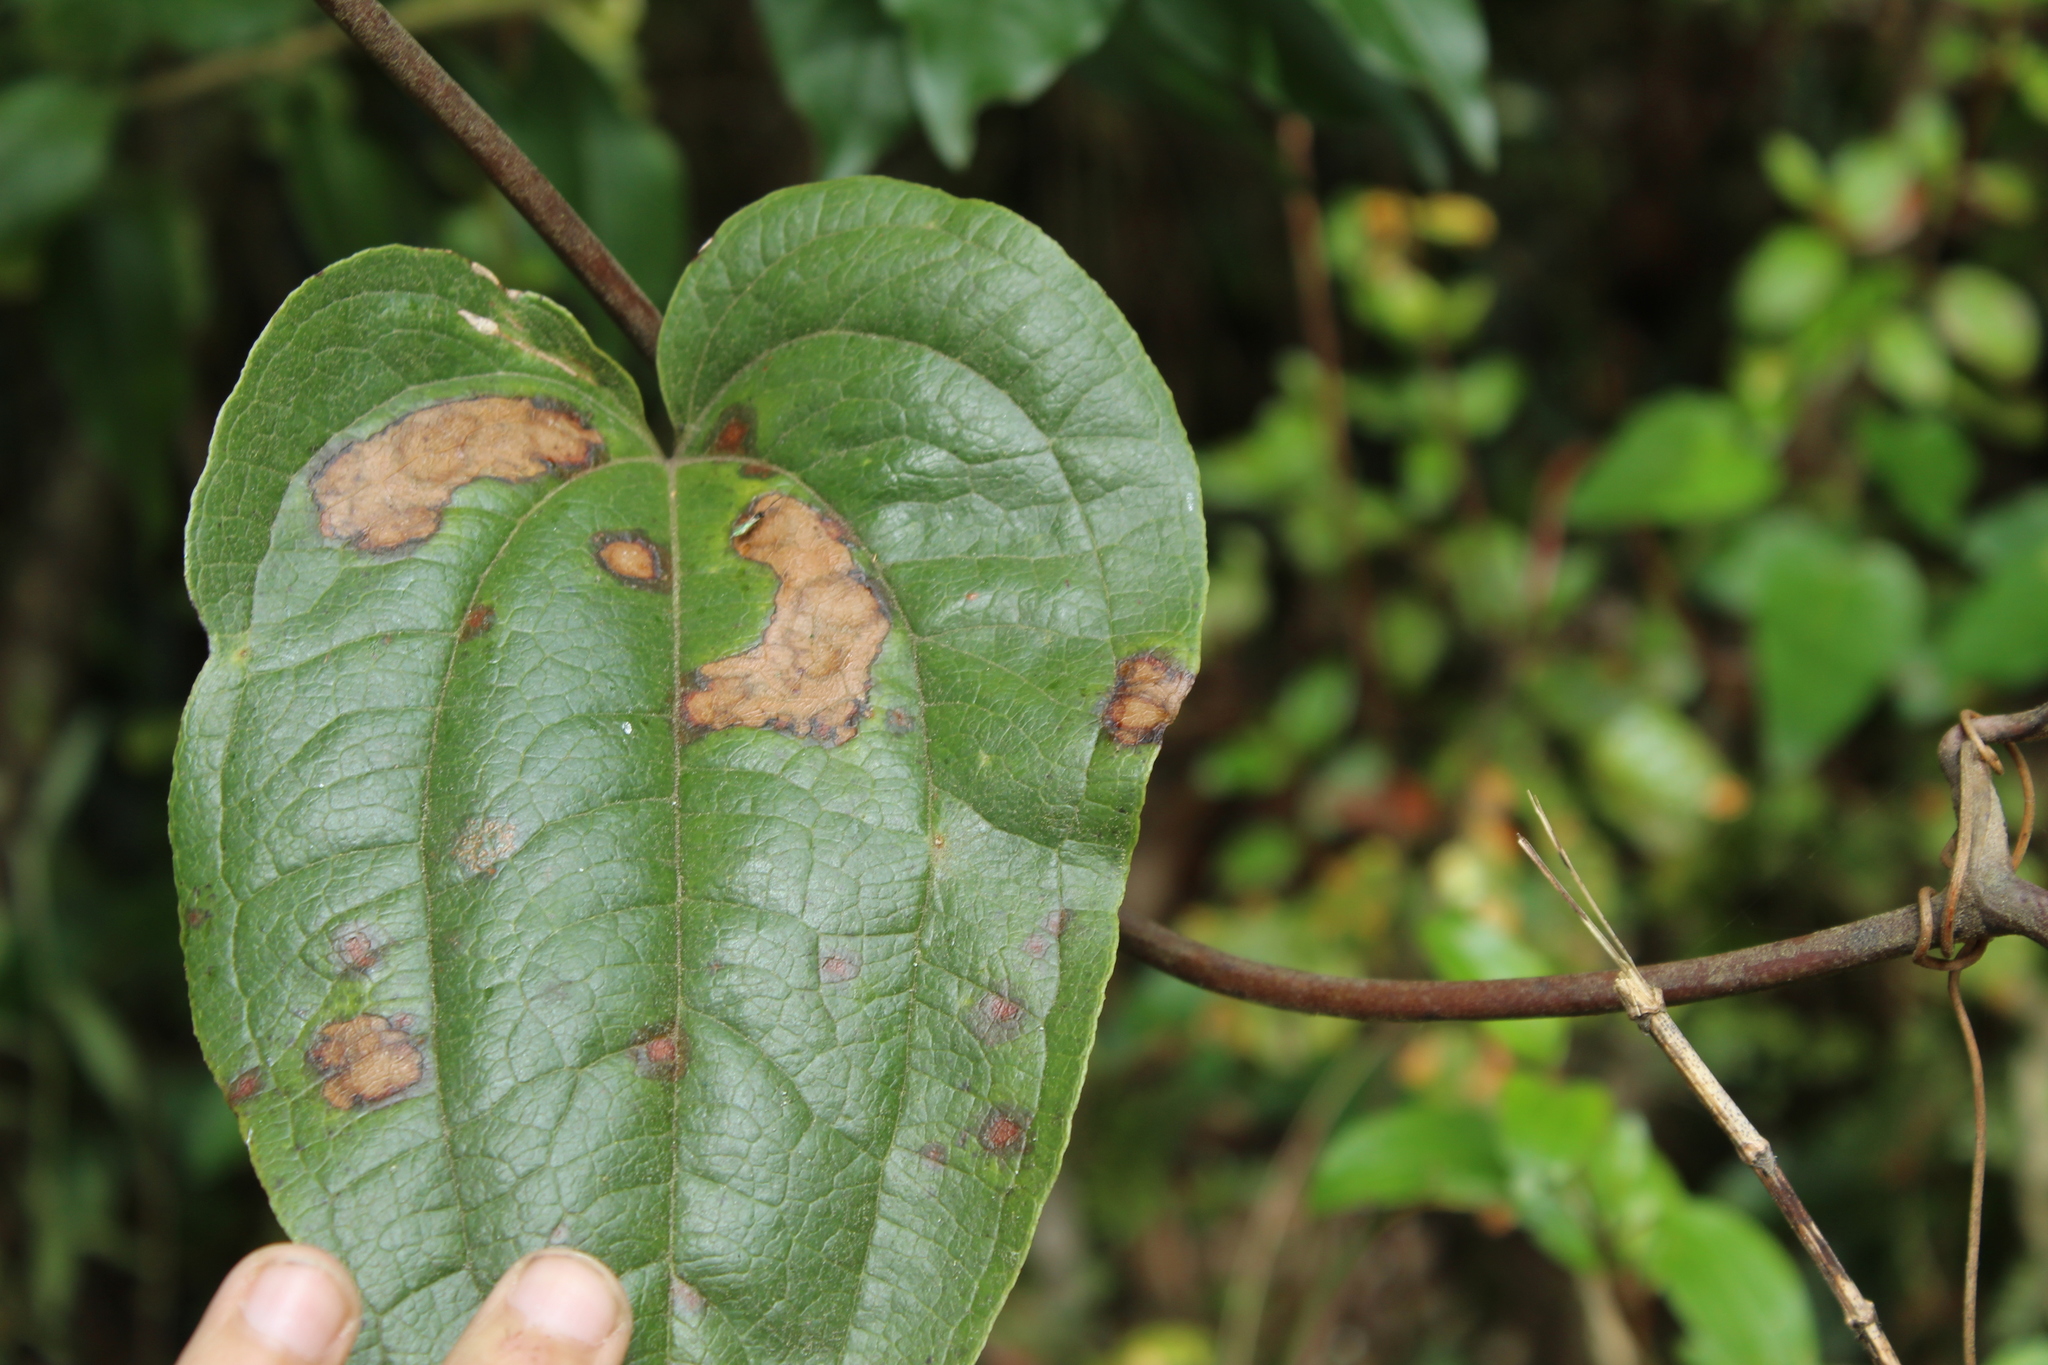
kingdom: Plantae
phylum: Tracheophyta
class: Liliopsida
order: Liliales
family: Smilacaceae
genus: Smilax
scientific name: Smilax tomentosa
